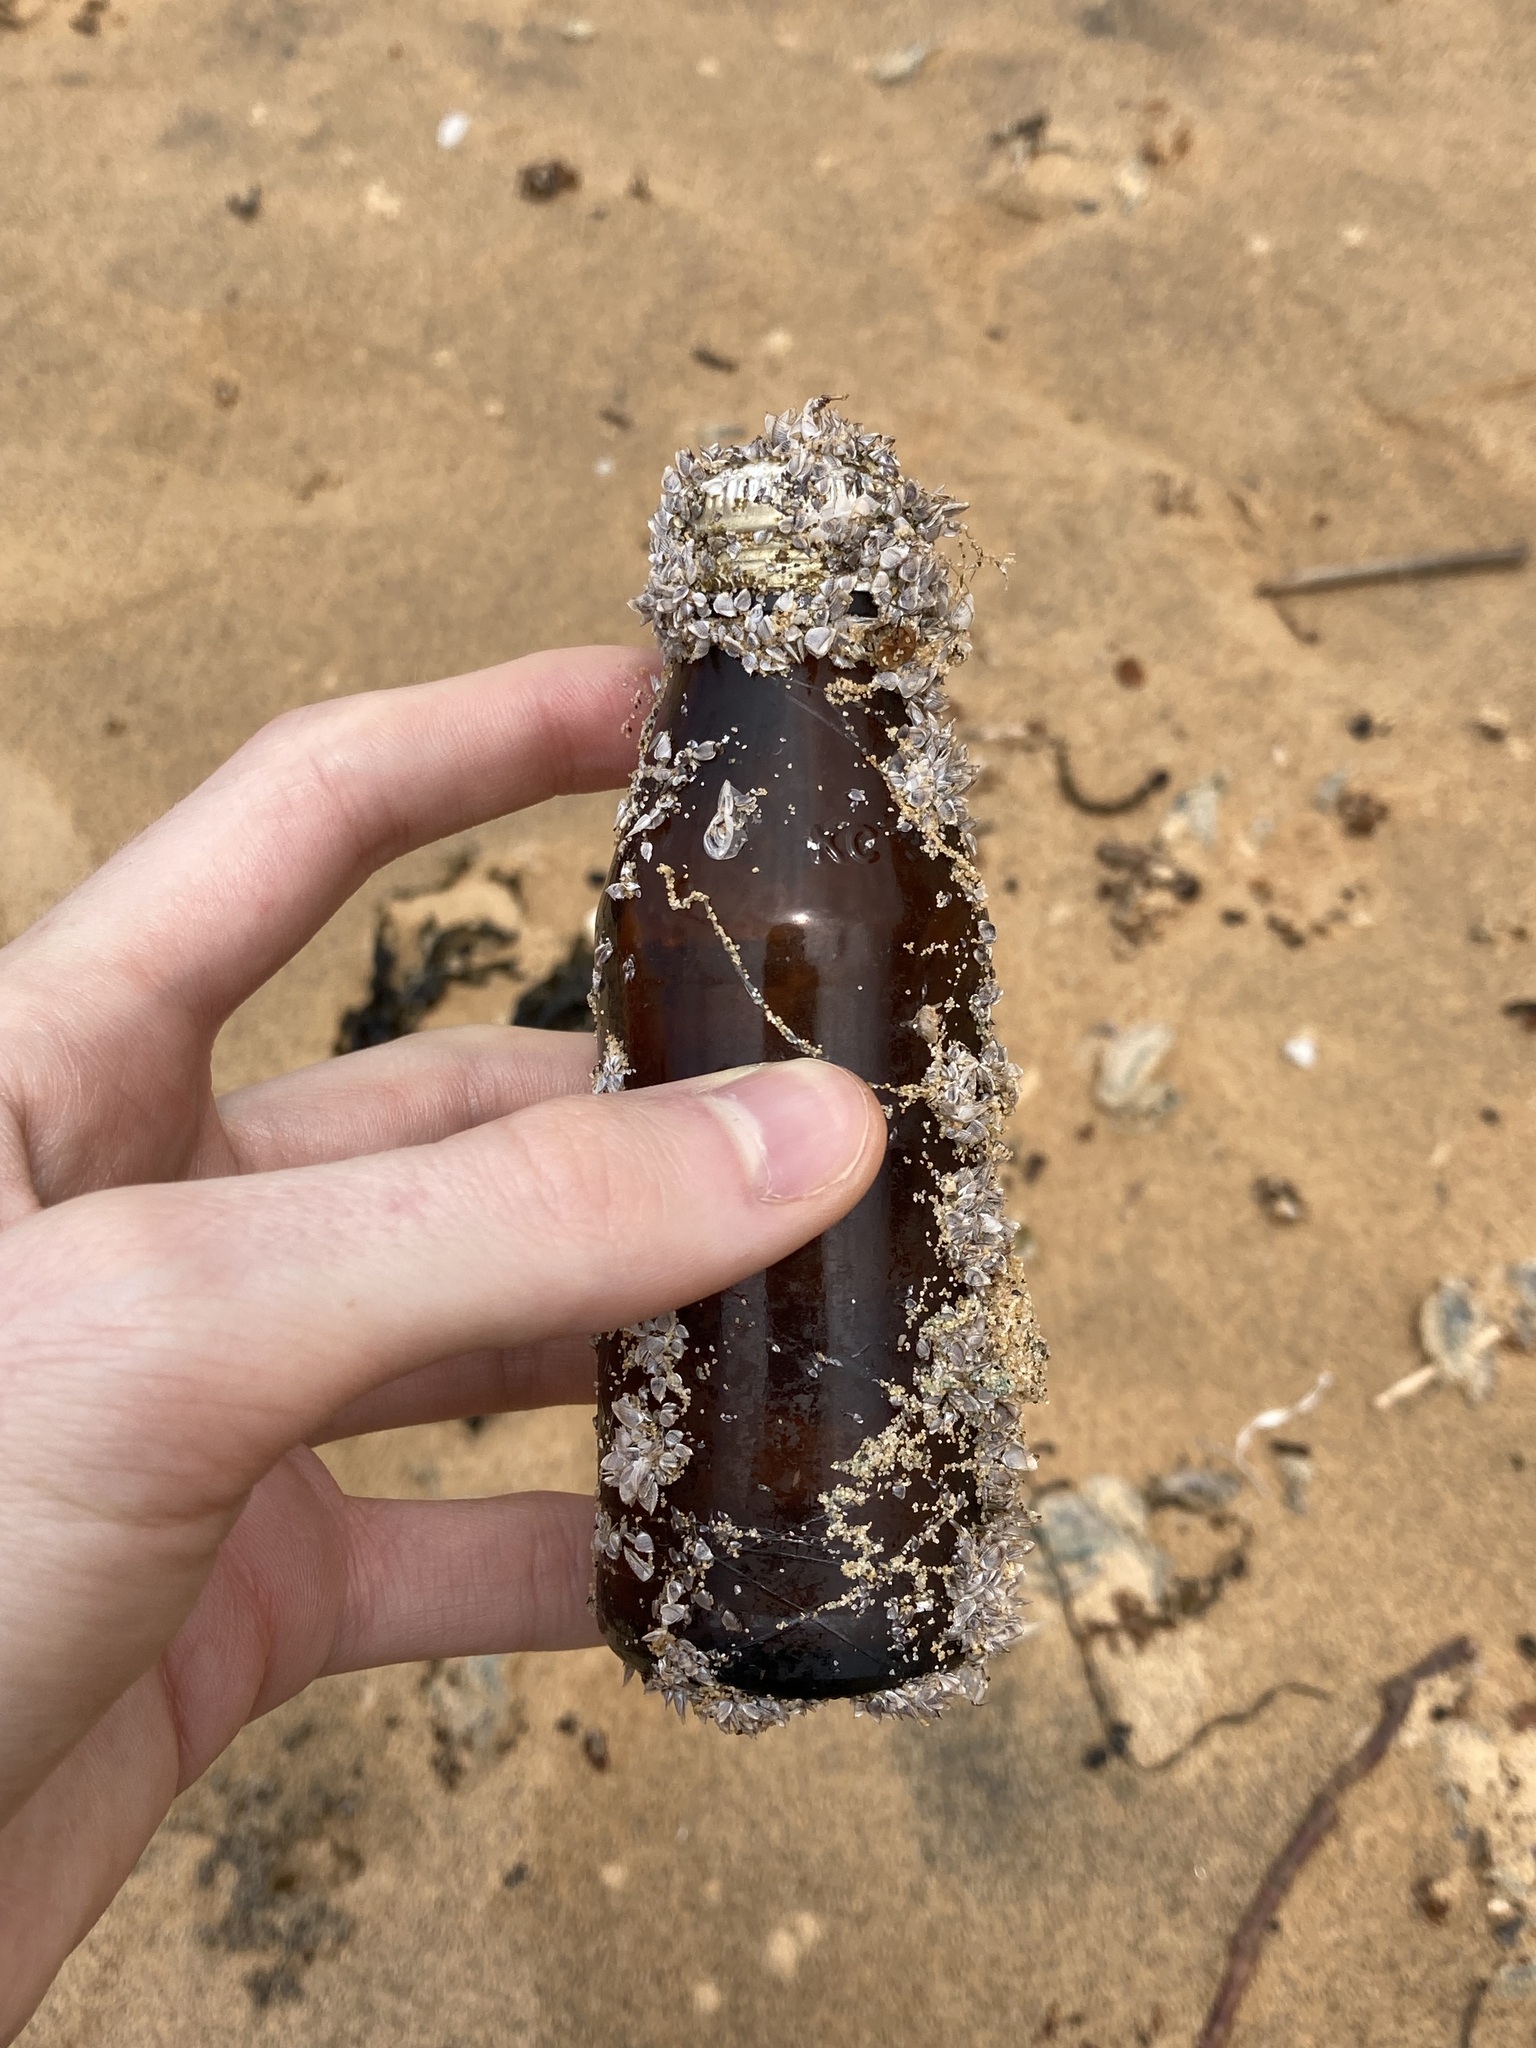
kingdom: Animalia
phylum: Arthropoda
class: Maxillopoda
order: Pedunculata
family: Lepadidae
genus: Lepas
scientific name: Lepas pectinata
